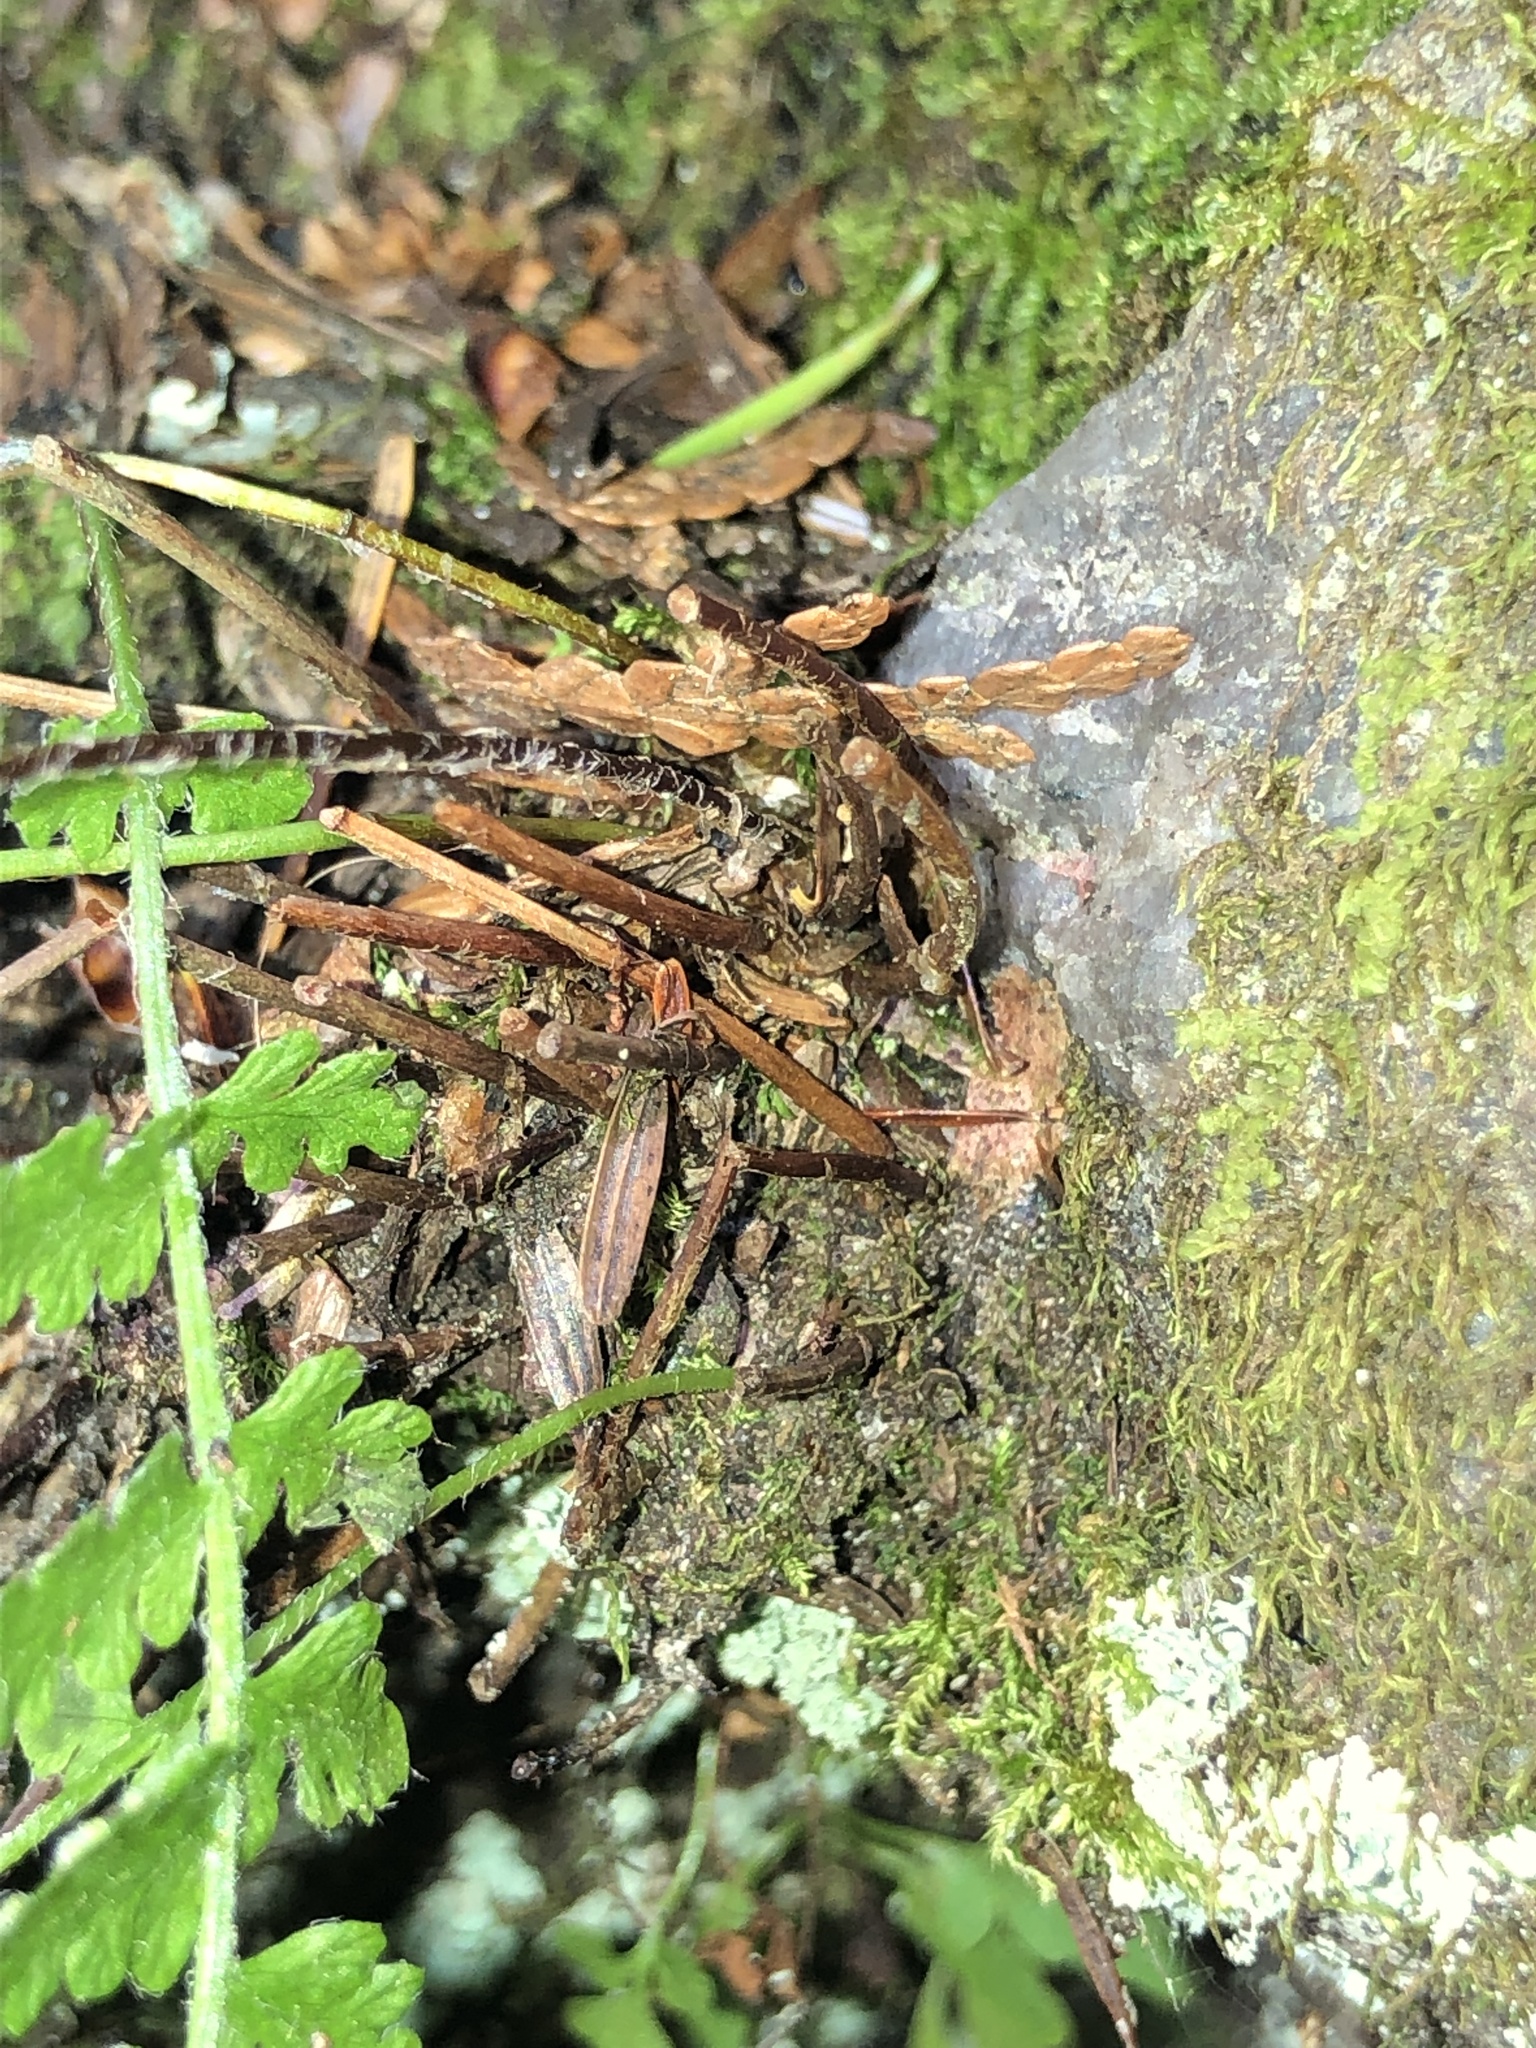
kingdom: Plantae
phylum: Tracheophyta
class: Polypodiopsida
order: Polypodiales
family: Woodsiaceae
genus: Woodsia
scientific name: Woodsia ilvensis
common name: Fragrant woodsia
